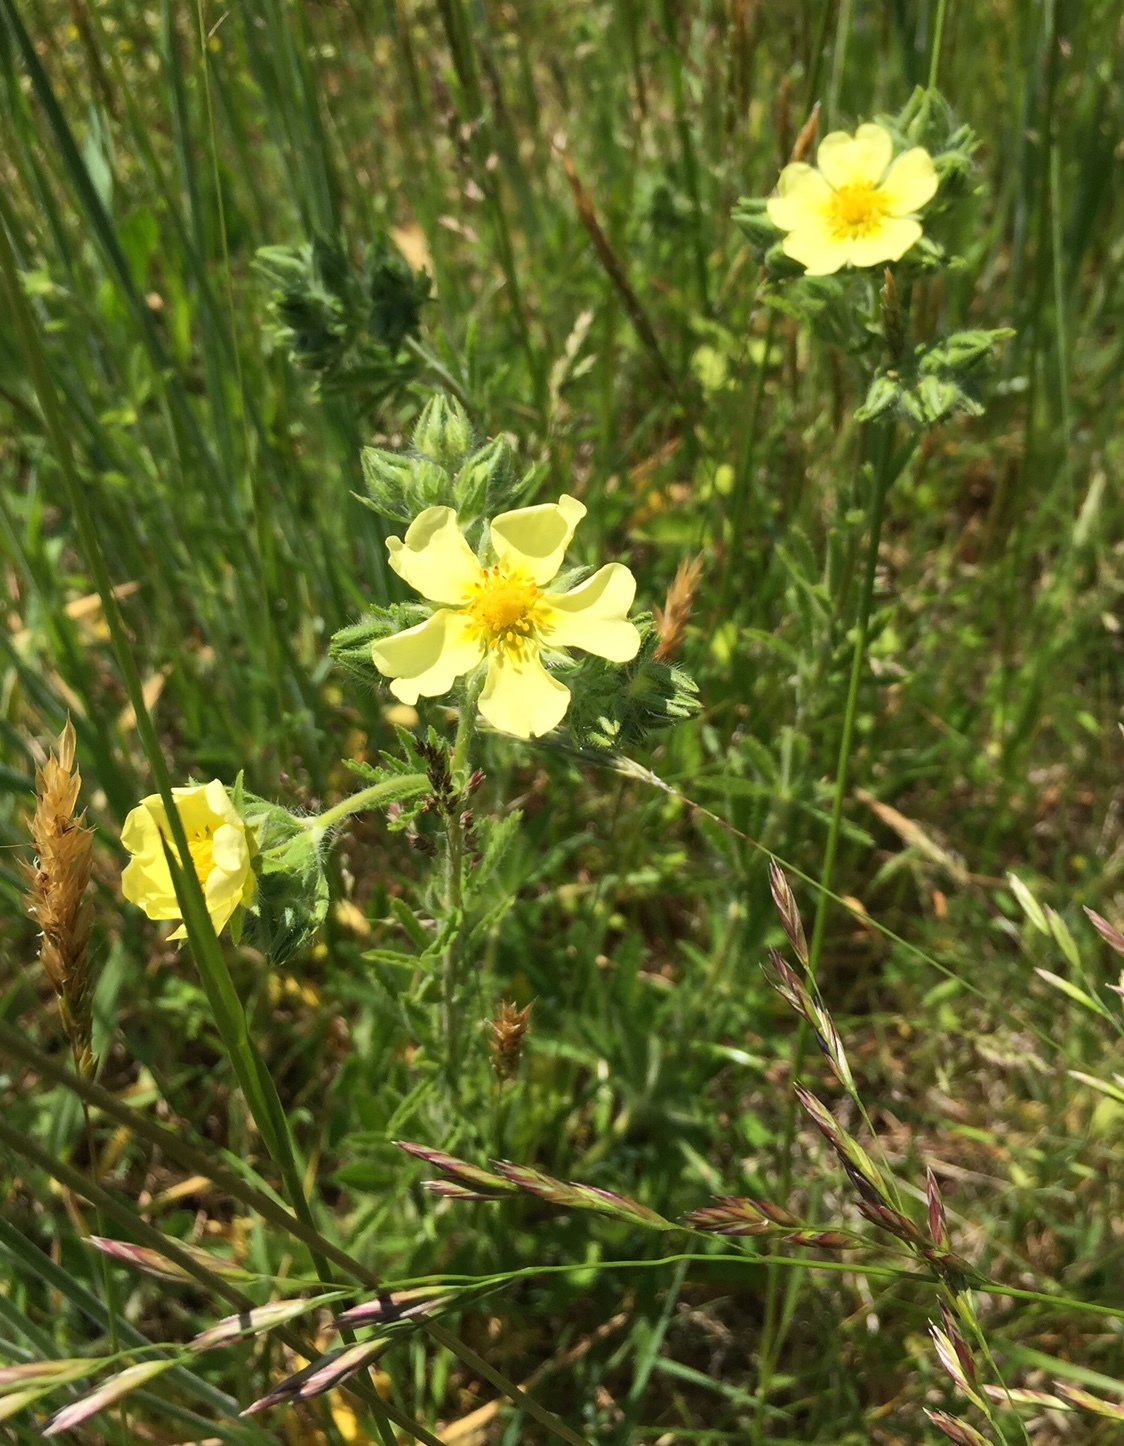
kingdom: Plantae
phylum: Tracheophyta
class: Magnoliopsida
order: Rosales
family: Rosaceae
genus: Potentilla
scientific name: Potentilla recta
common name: Sulphur cinquefoil
